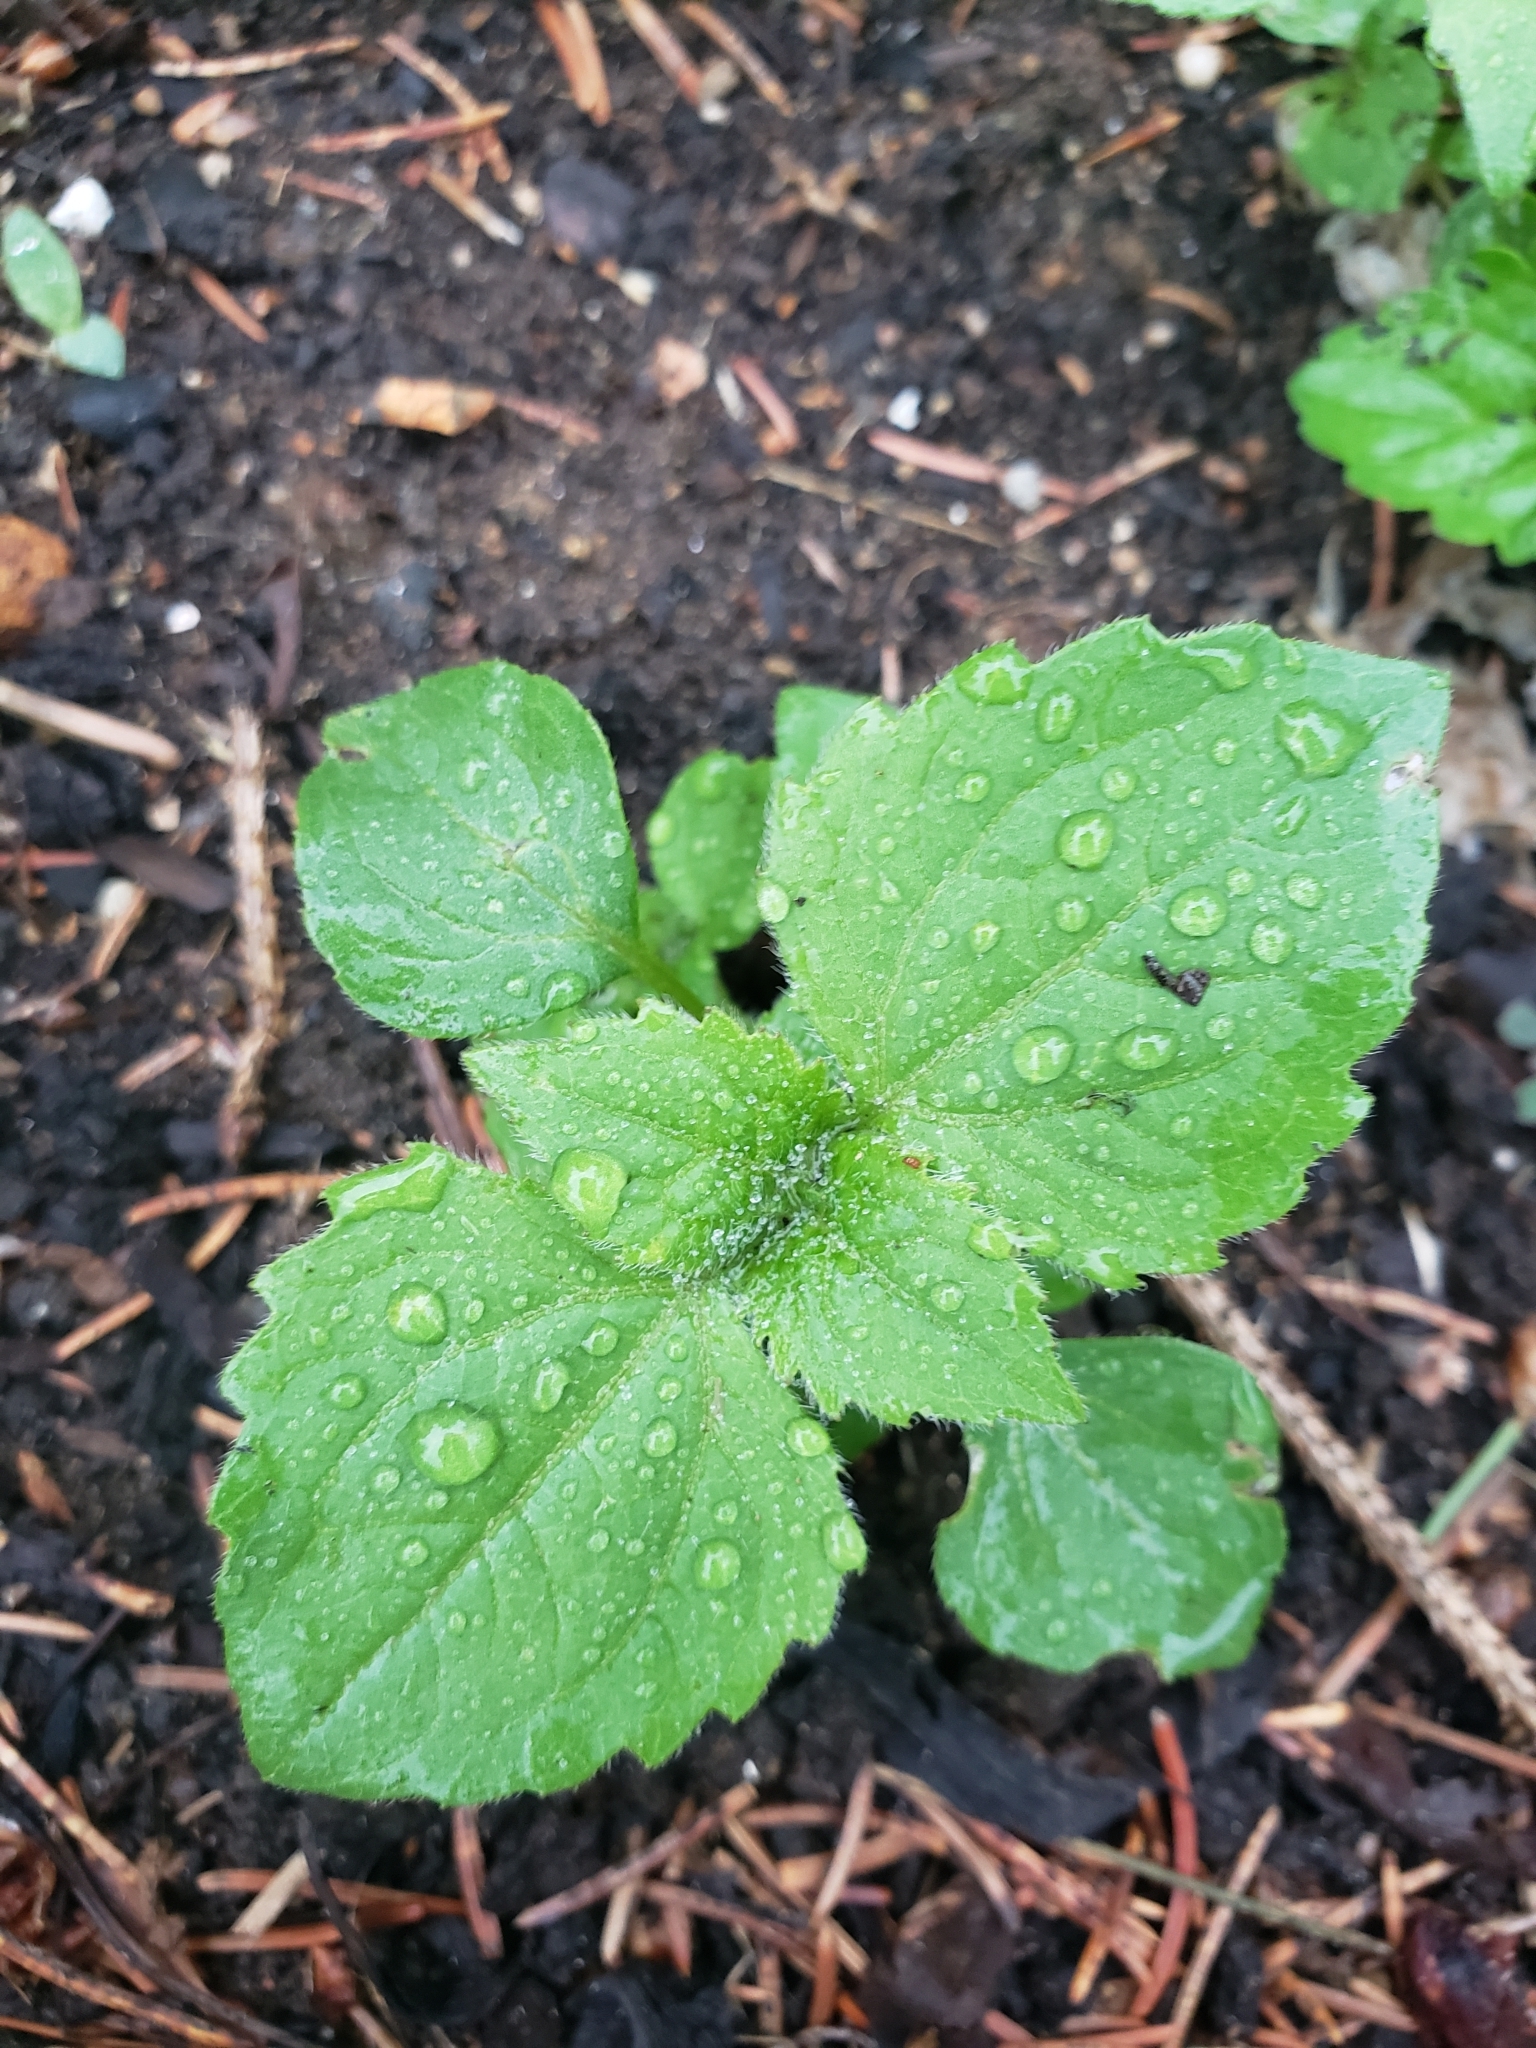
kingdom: Plantae
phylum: Tracheophyta
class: Magnoliopsida
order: Asterales
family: Asteraceae
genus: Galinsoga
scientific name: Galinsoga quadriradiata
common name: Shaggy soldier
